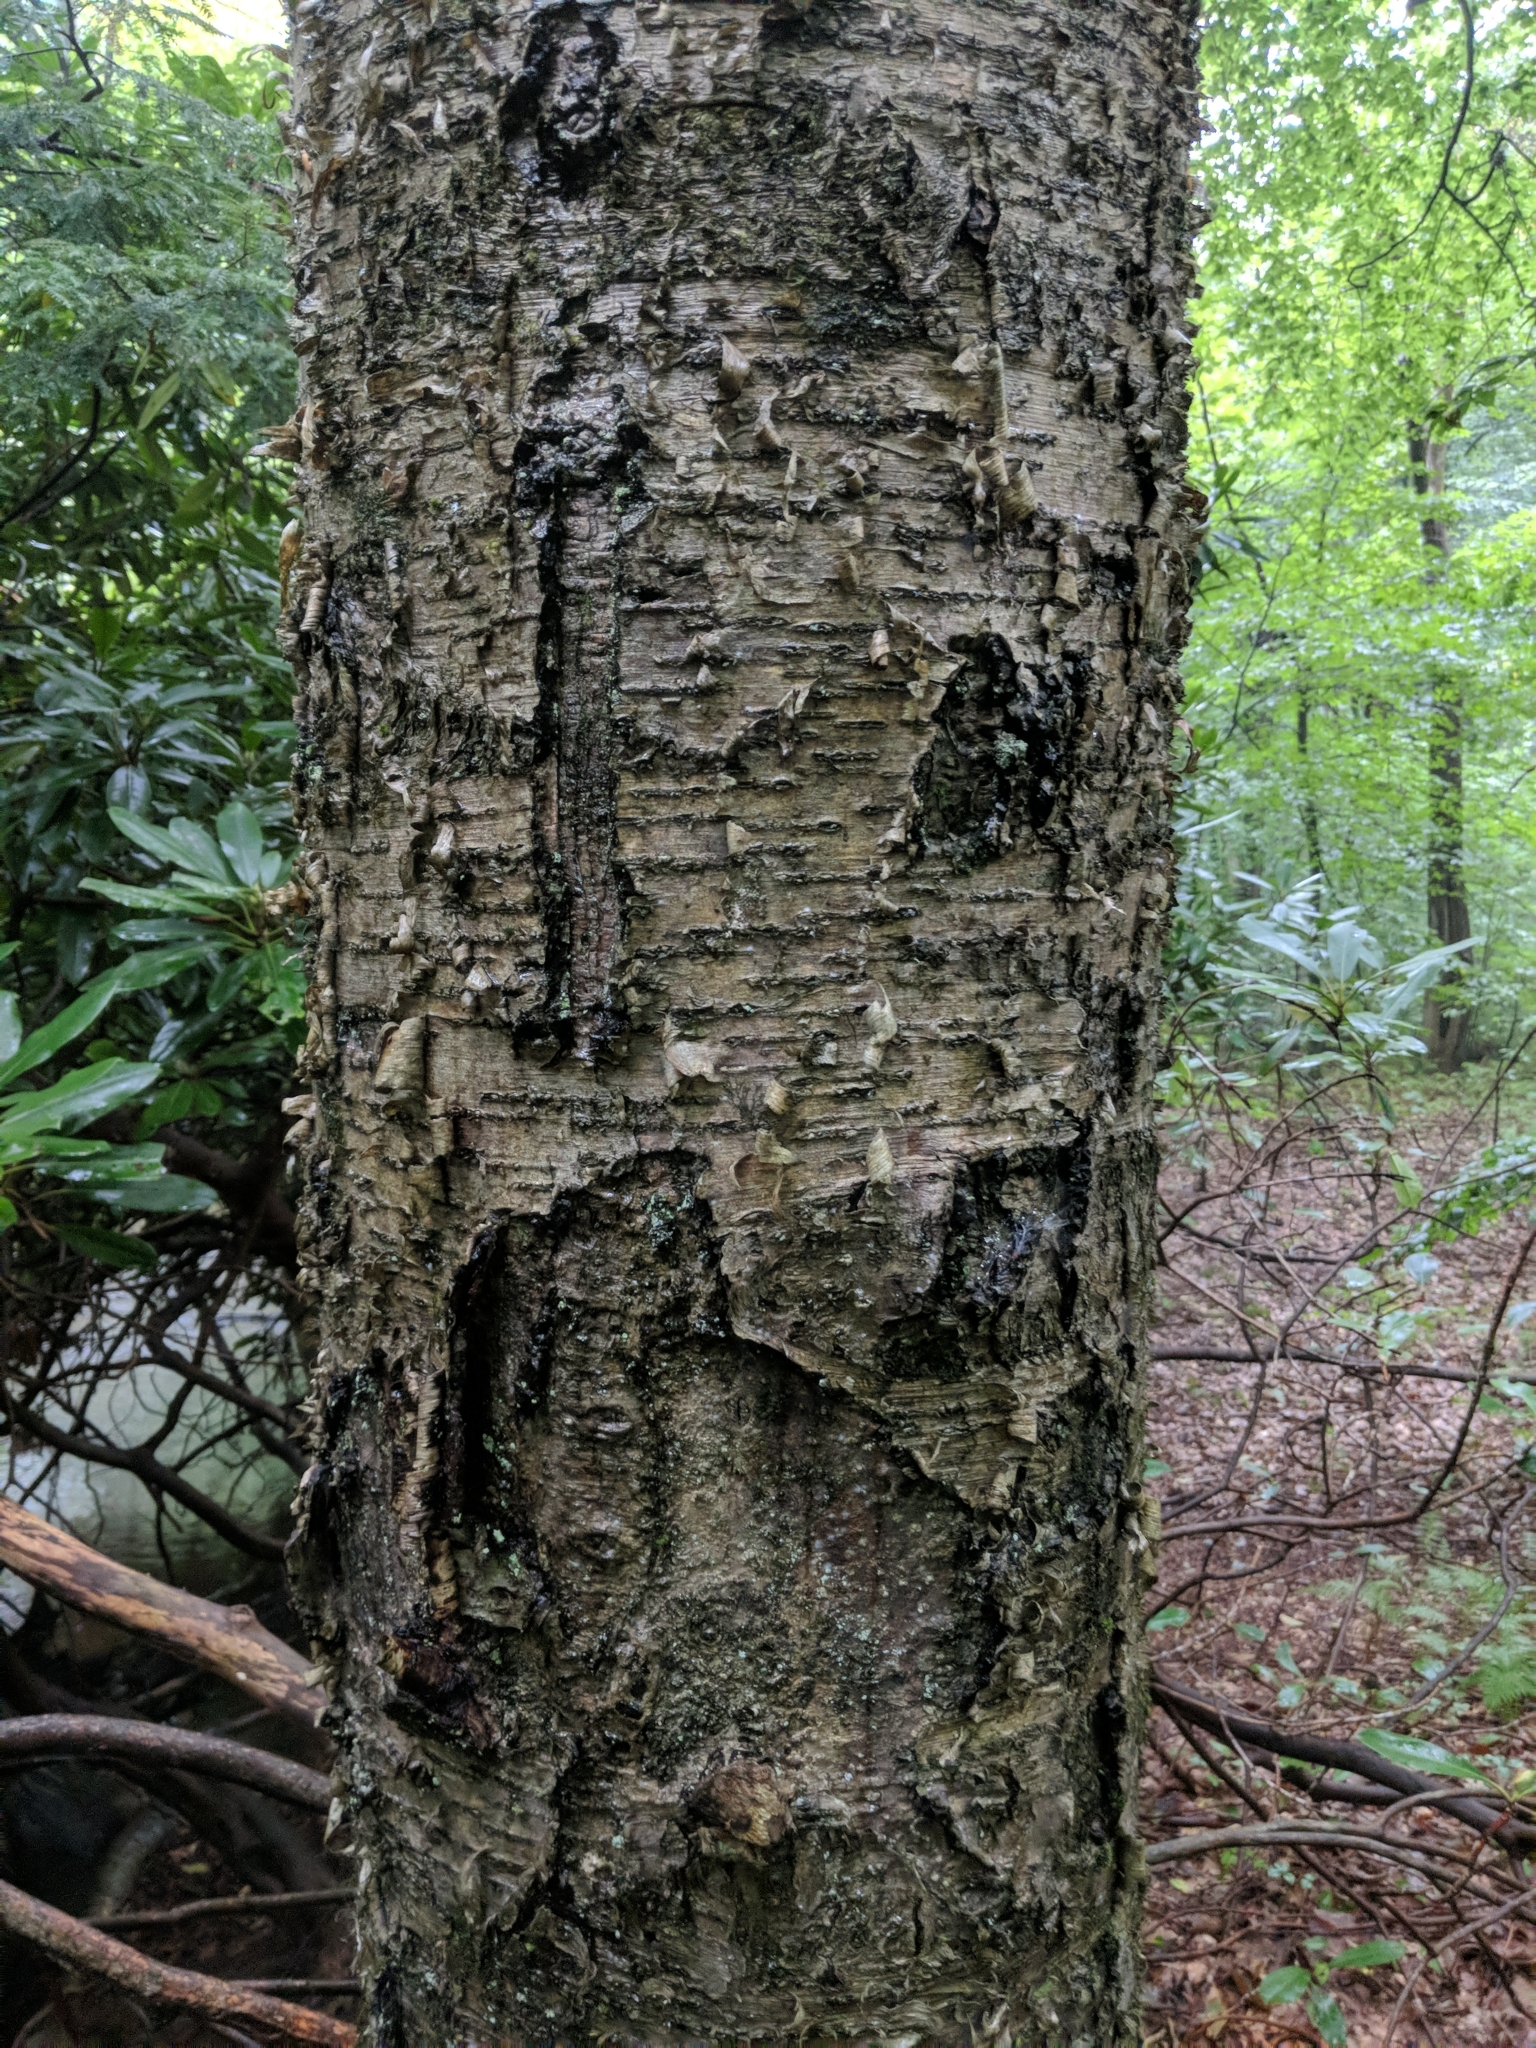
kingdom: Plantae
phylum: Tracheophyta
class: Magnoliopsida
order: Fagales
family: Betulaceae
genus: Betula
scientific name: Betula alleghaniensis
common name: Yellow birch
